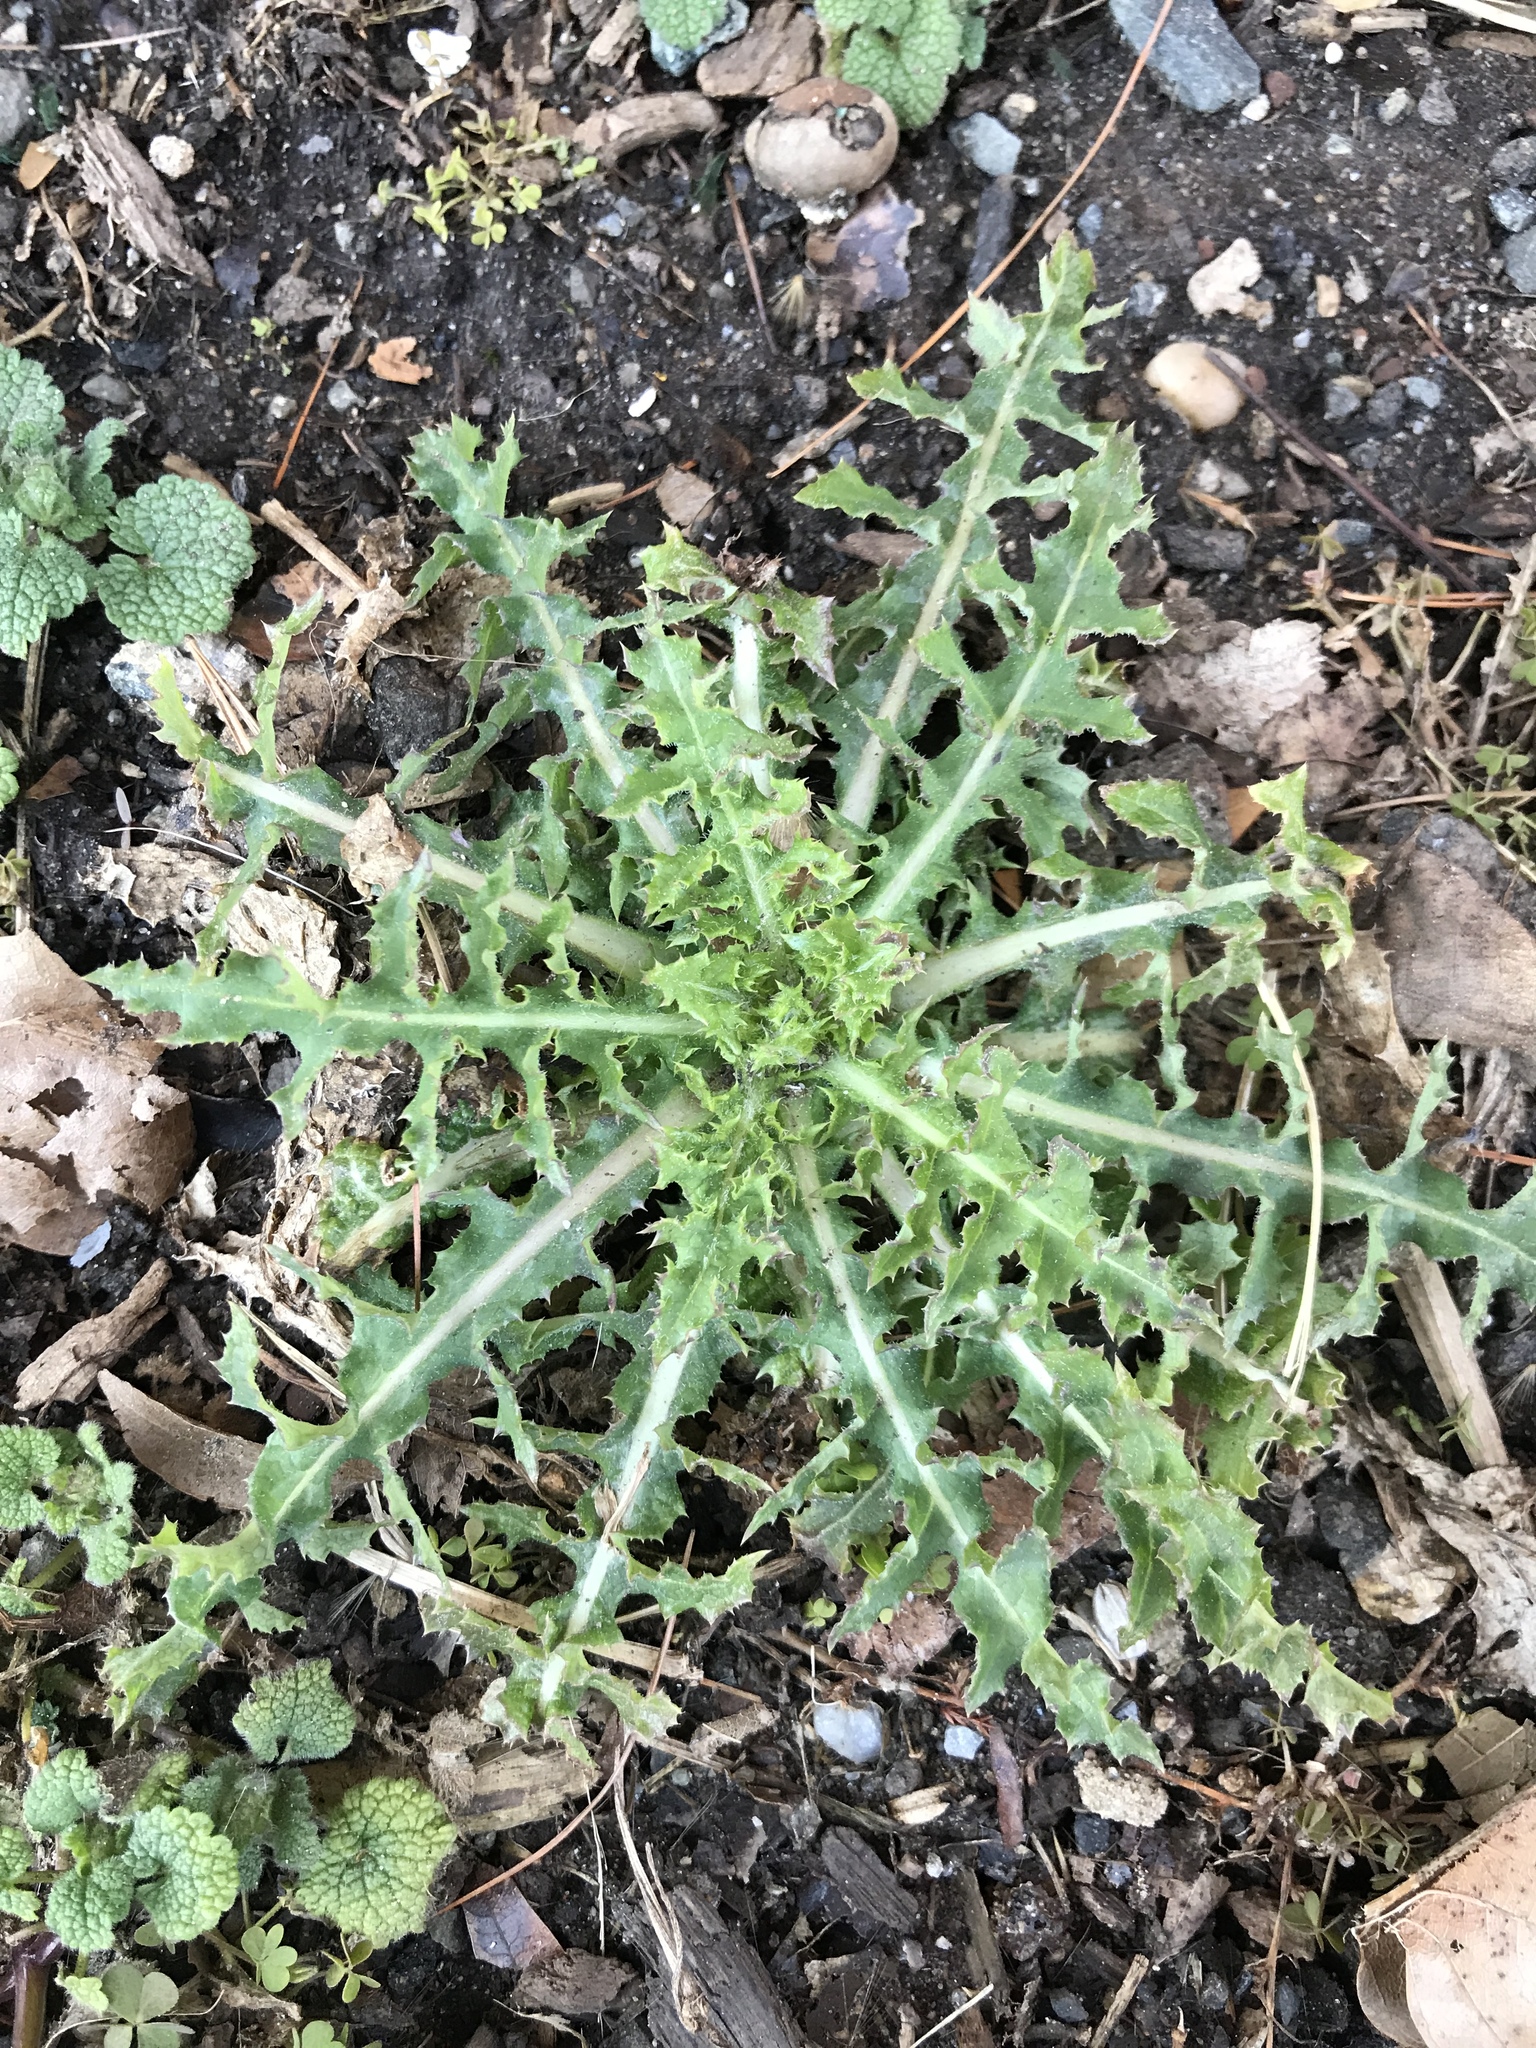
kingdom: Plantae
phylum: Tracheophyta
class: Magnoliopsida
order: Asterales
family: Asteraceae
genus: Sonchus
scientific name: Sonchus asper
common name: Prickly sow-thistle
